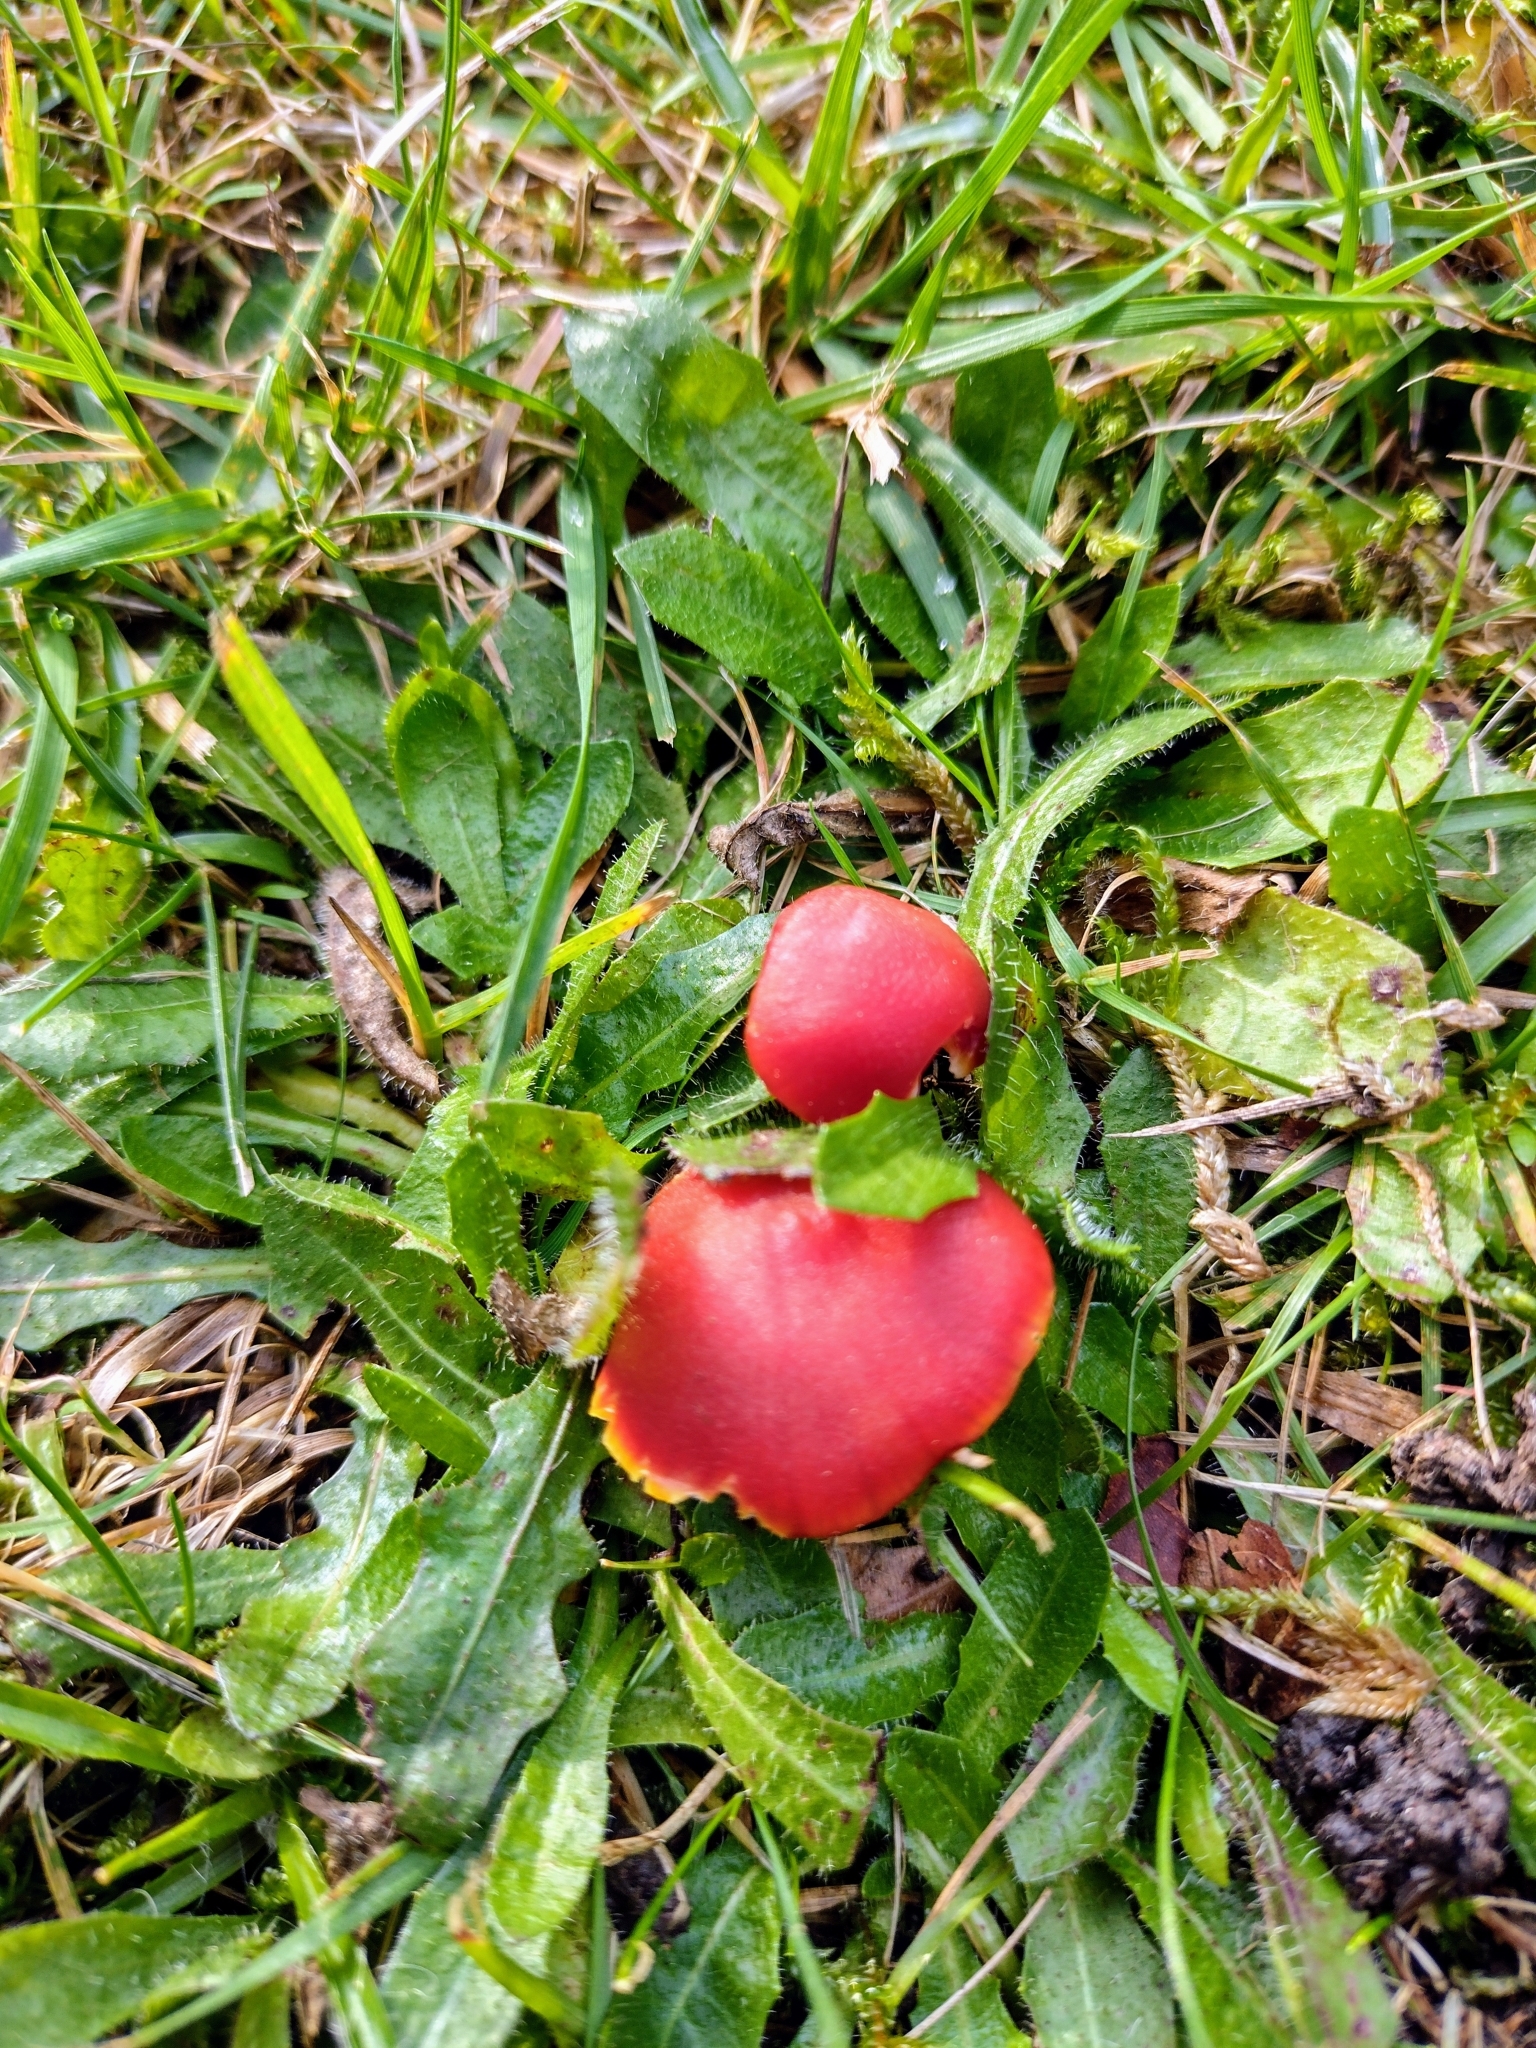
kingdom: Fungi
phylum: Basidiomycota
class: Agaricomycetes
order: Agaricales
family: Hygrophoraceae
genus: Hygrocybe
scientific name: Hygrocybe coccinea
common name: Scarlet hood
